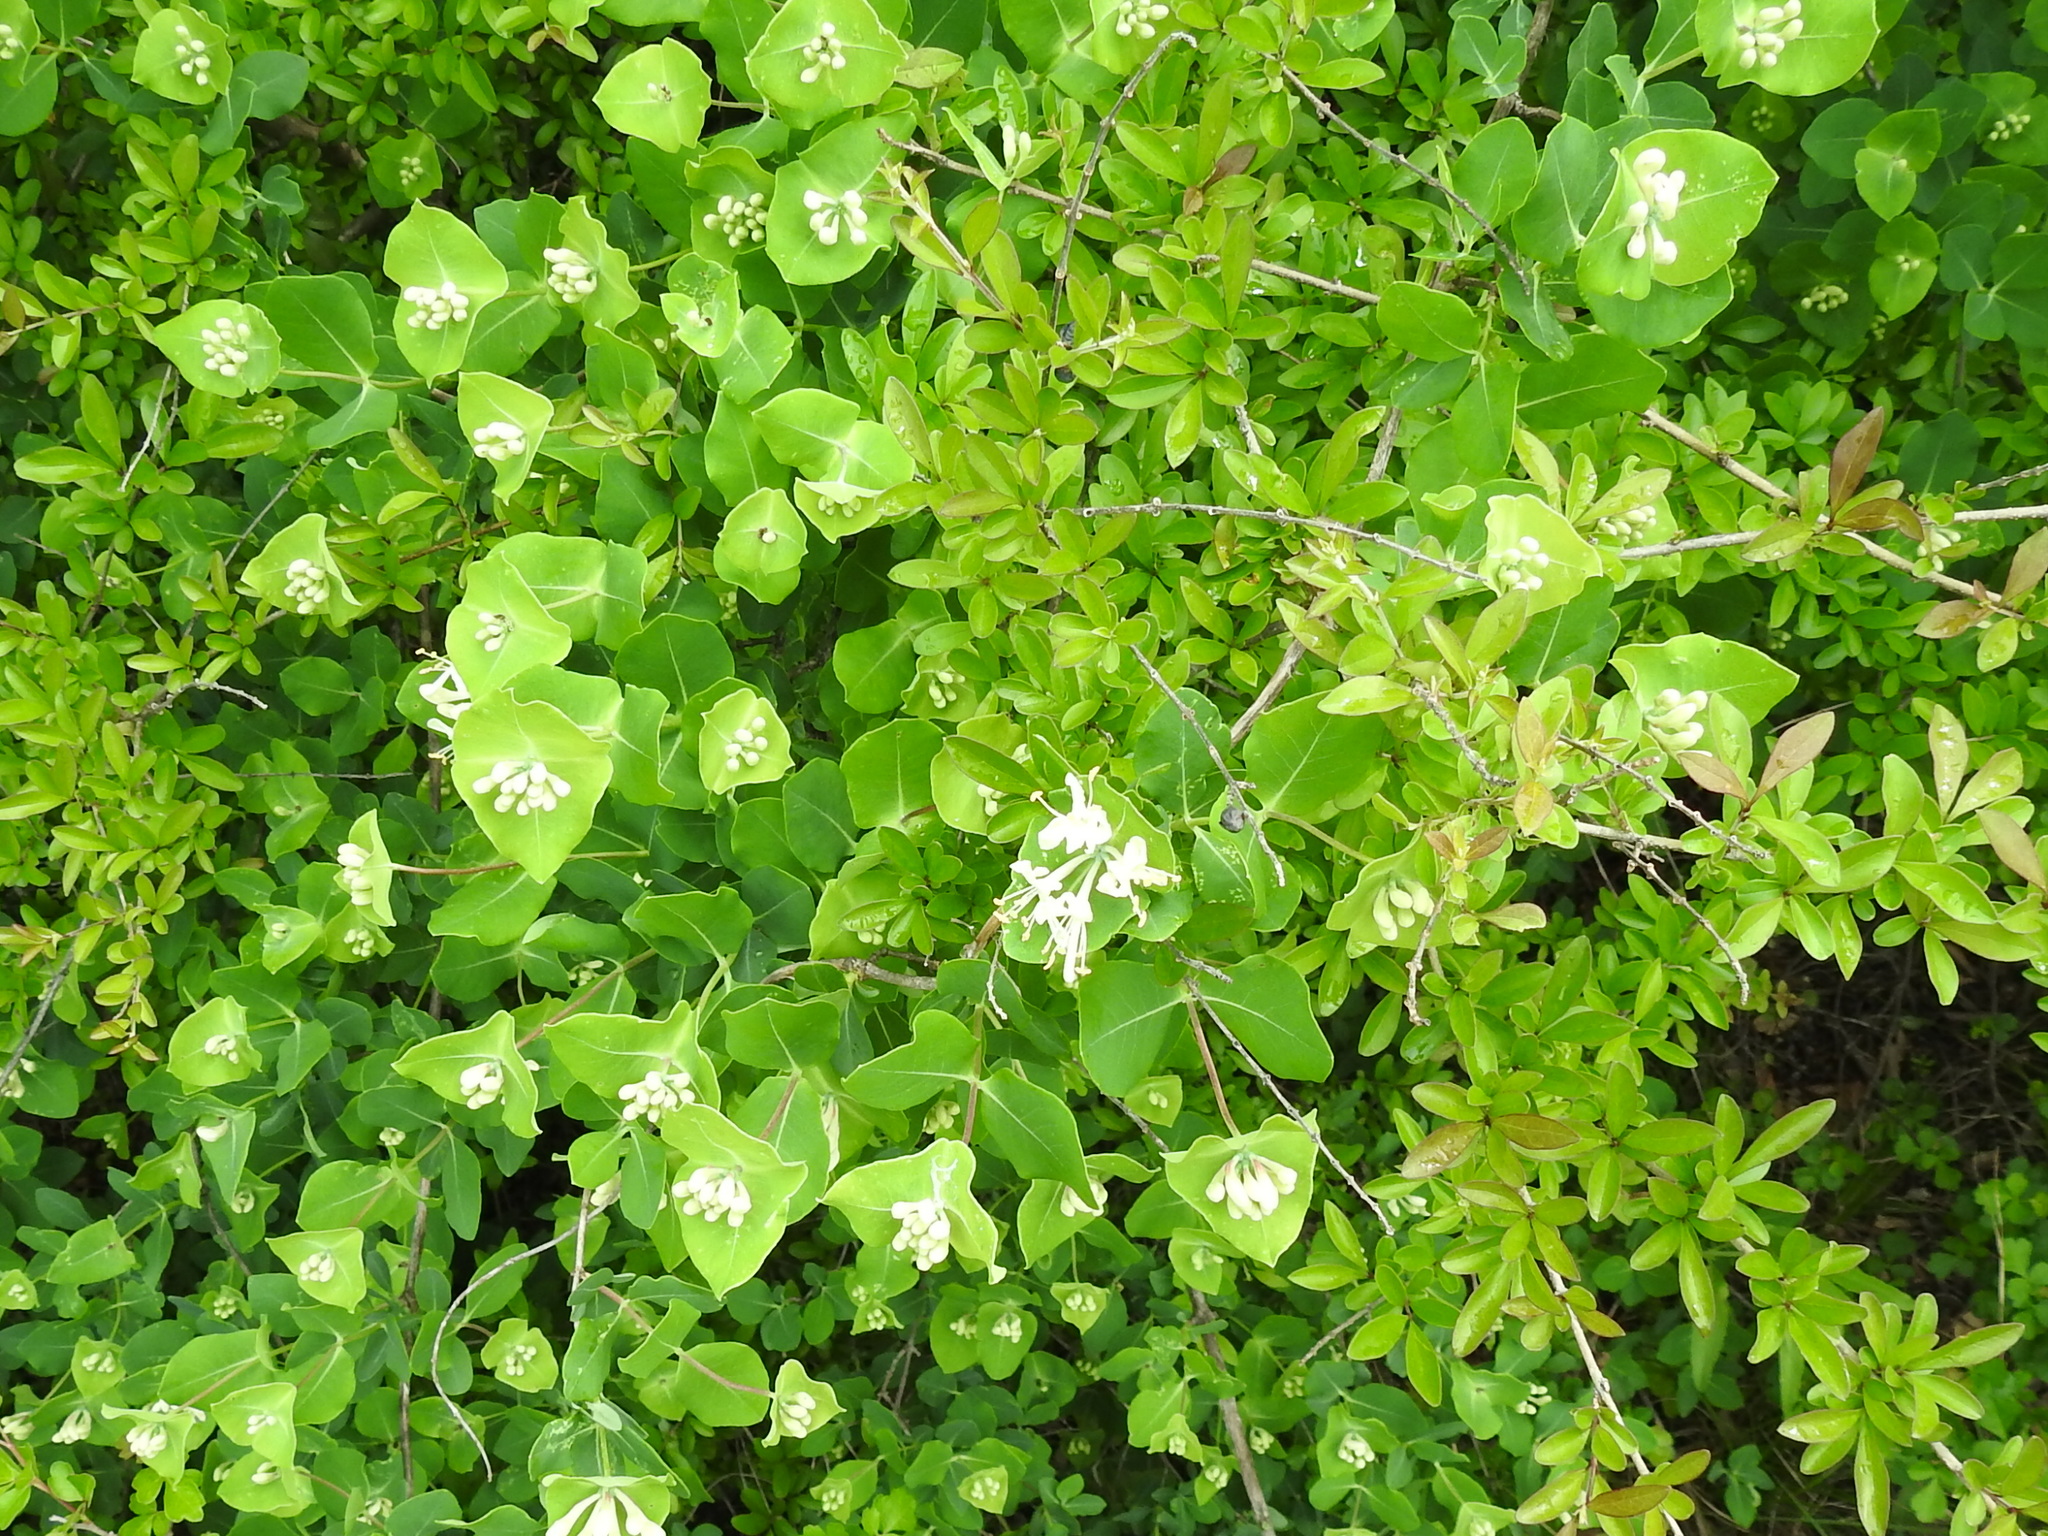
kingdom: Plantae
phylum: Tracheophyta
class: Magnoliopsida
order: Dipsacales
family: Caprifoliaceae
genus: Lonicera
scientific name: Lonicera albiflora
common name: White honeysuckle
